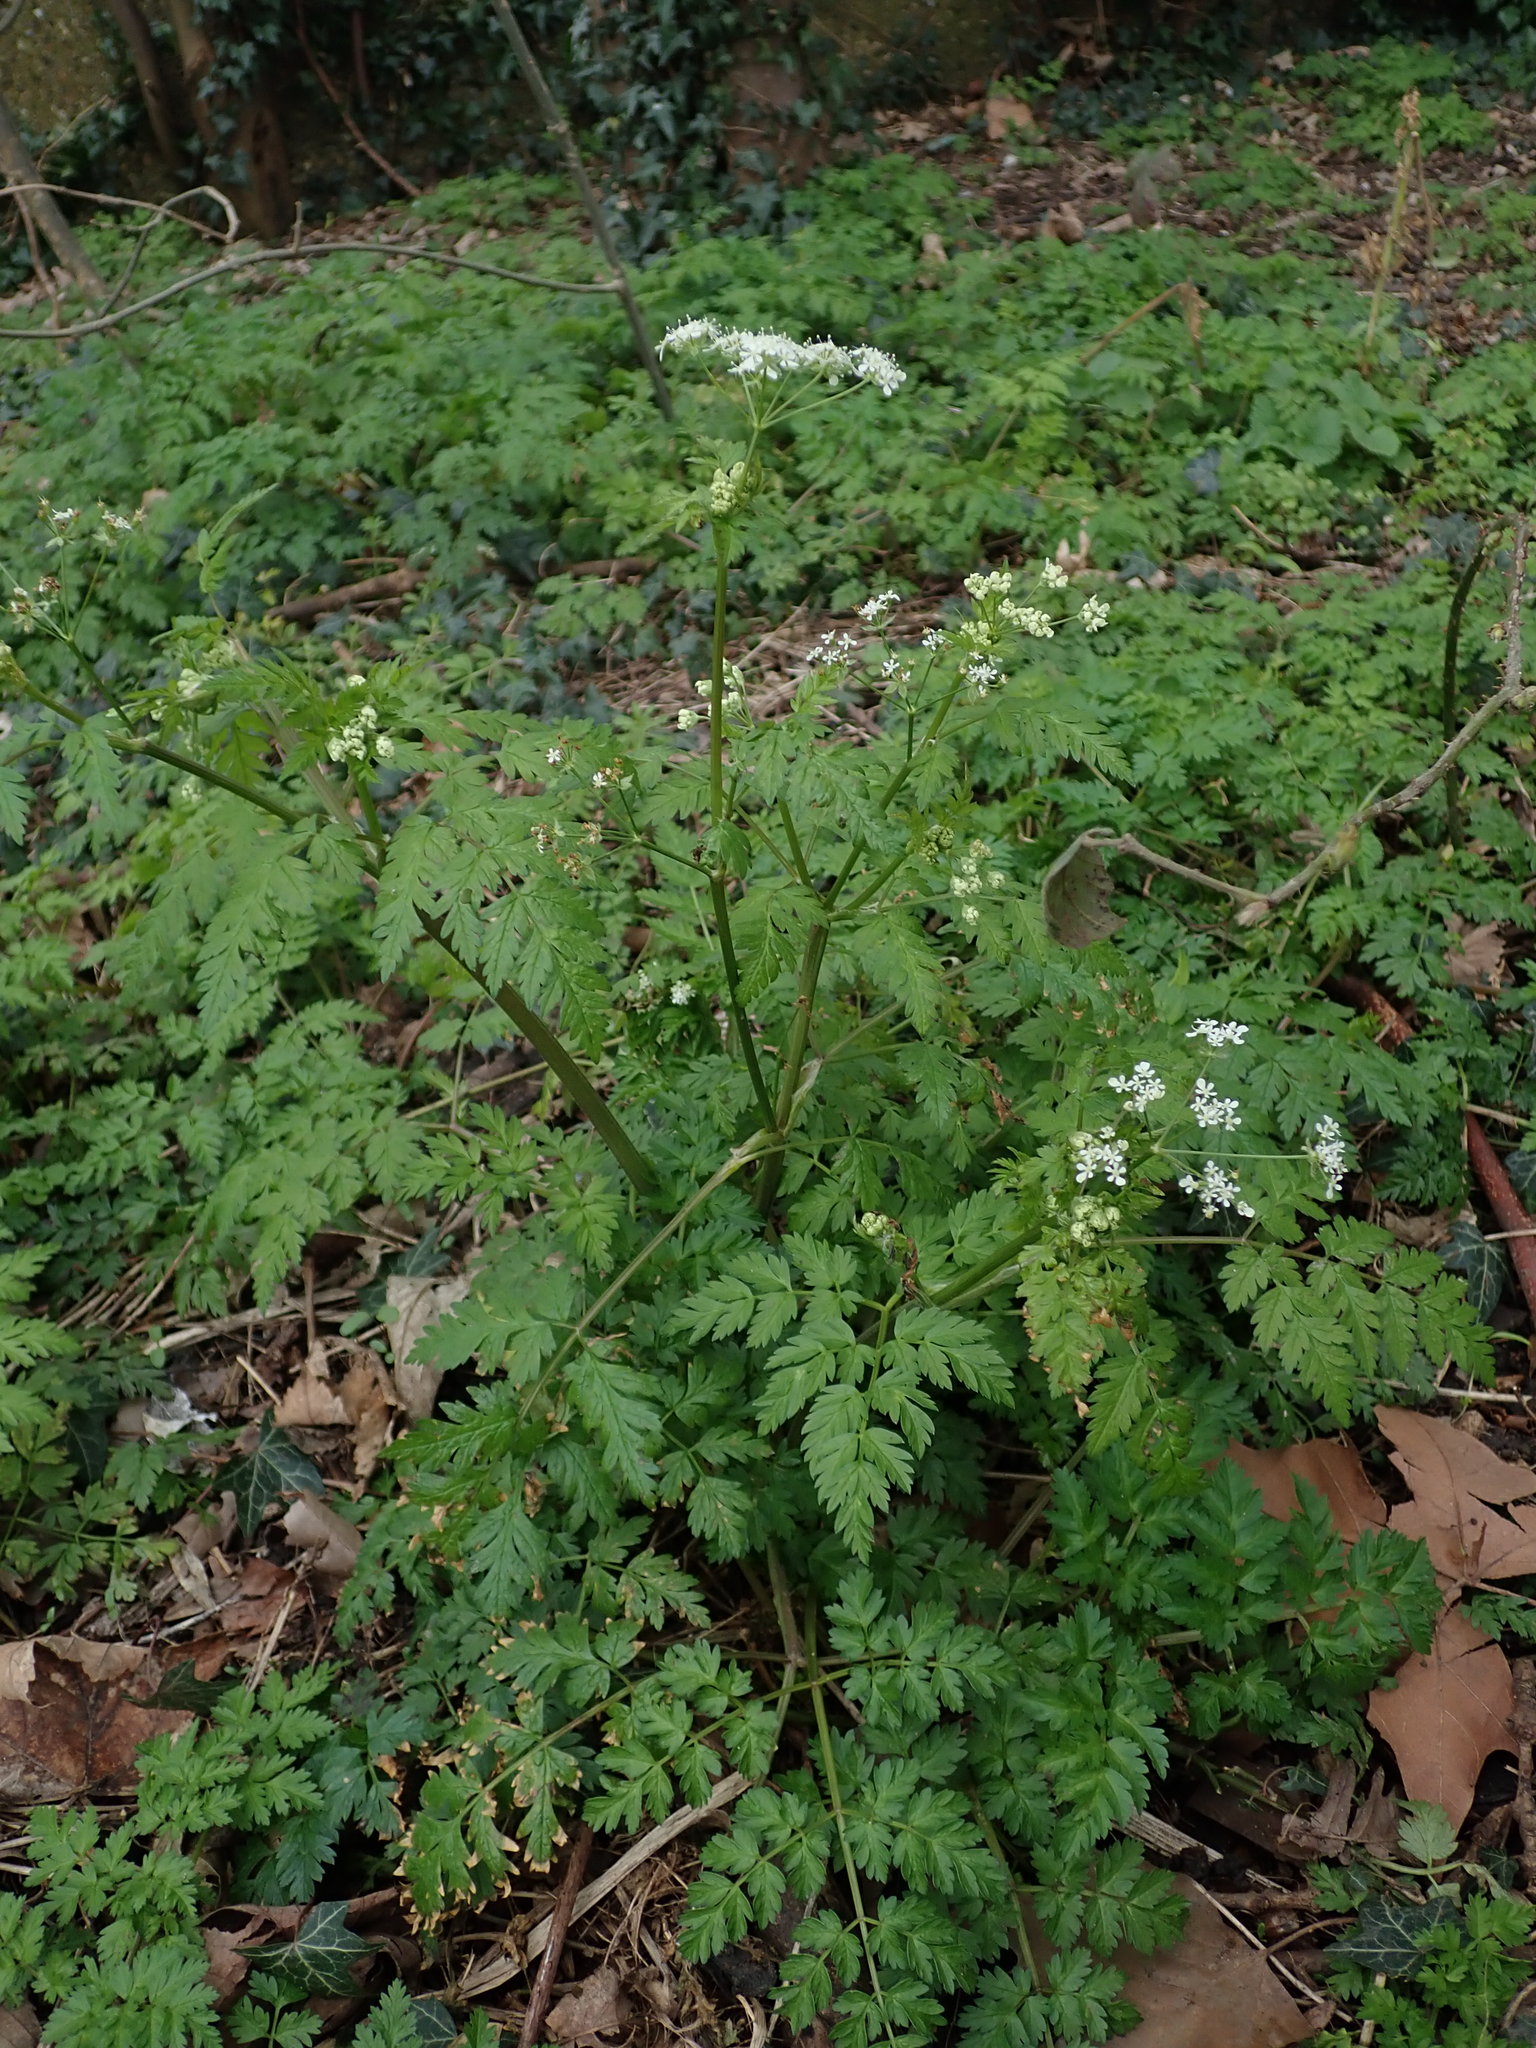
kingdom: Plantae
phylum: Tracheophyta
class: Magnoliopsida
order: Apiales
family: Apiaceae
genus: Anthriscus
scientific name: Anthriscus sylvestris
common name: Cow parsley
